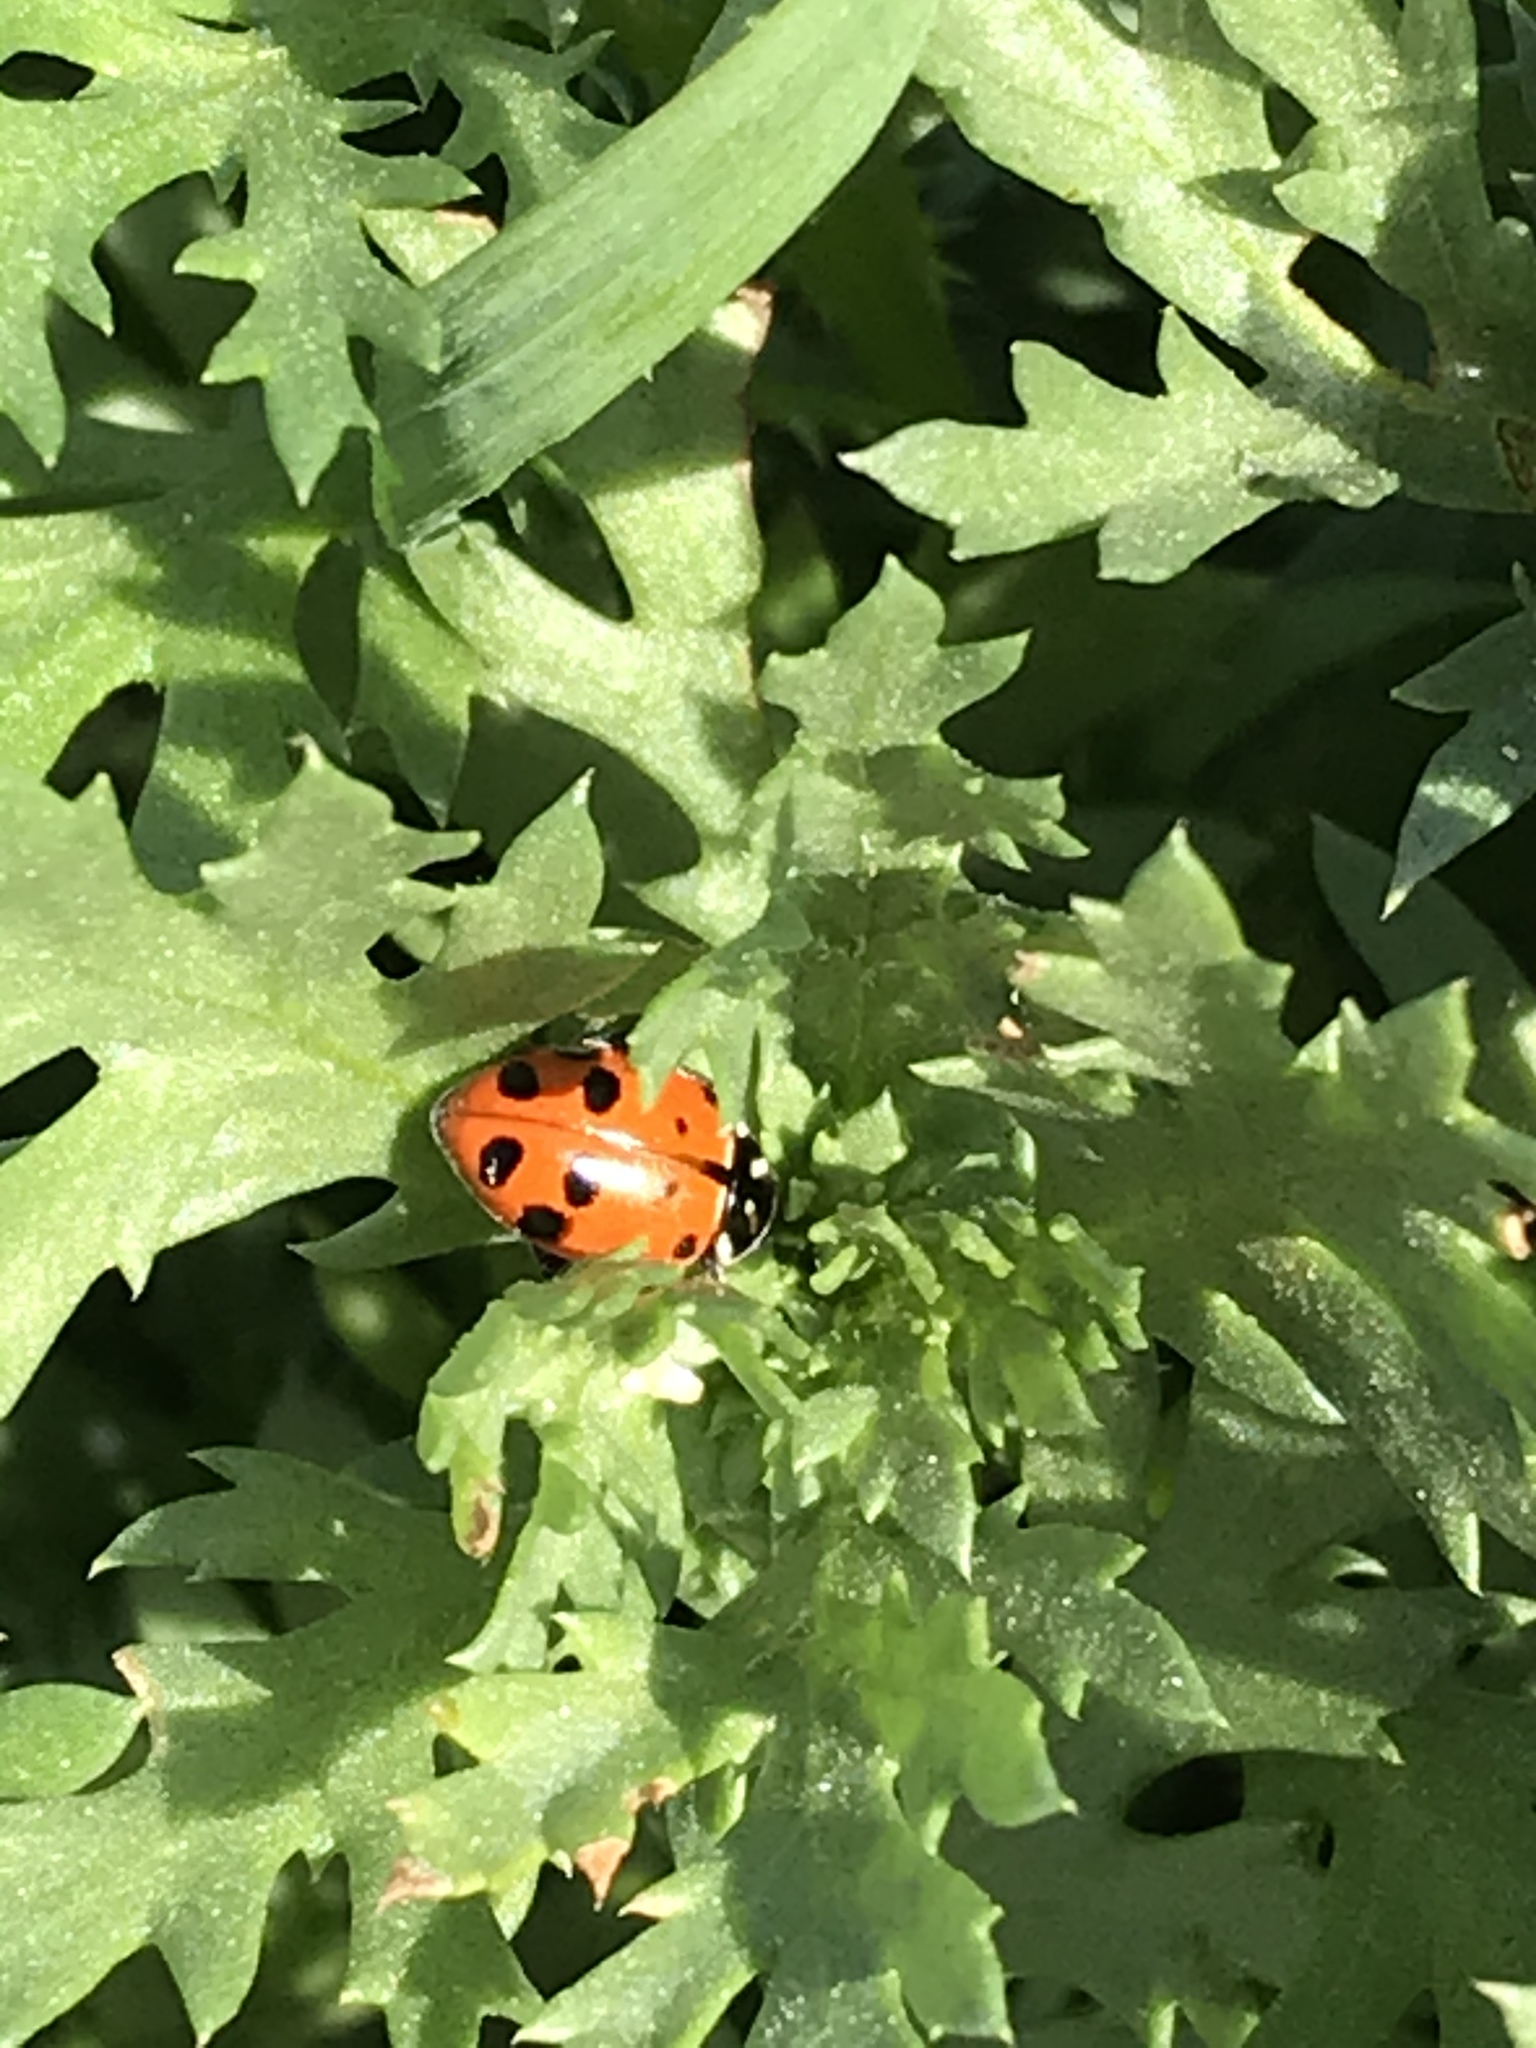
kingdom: Animalia
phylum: Arthropoda
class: Insecta
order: Coleoptera
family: Coccinellidae
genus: Hippodamia
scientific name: Hippodamia convergens
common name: Convergent lady beetle
